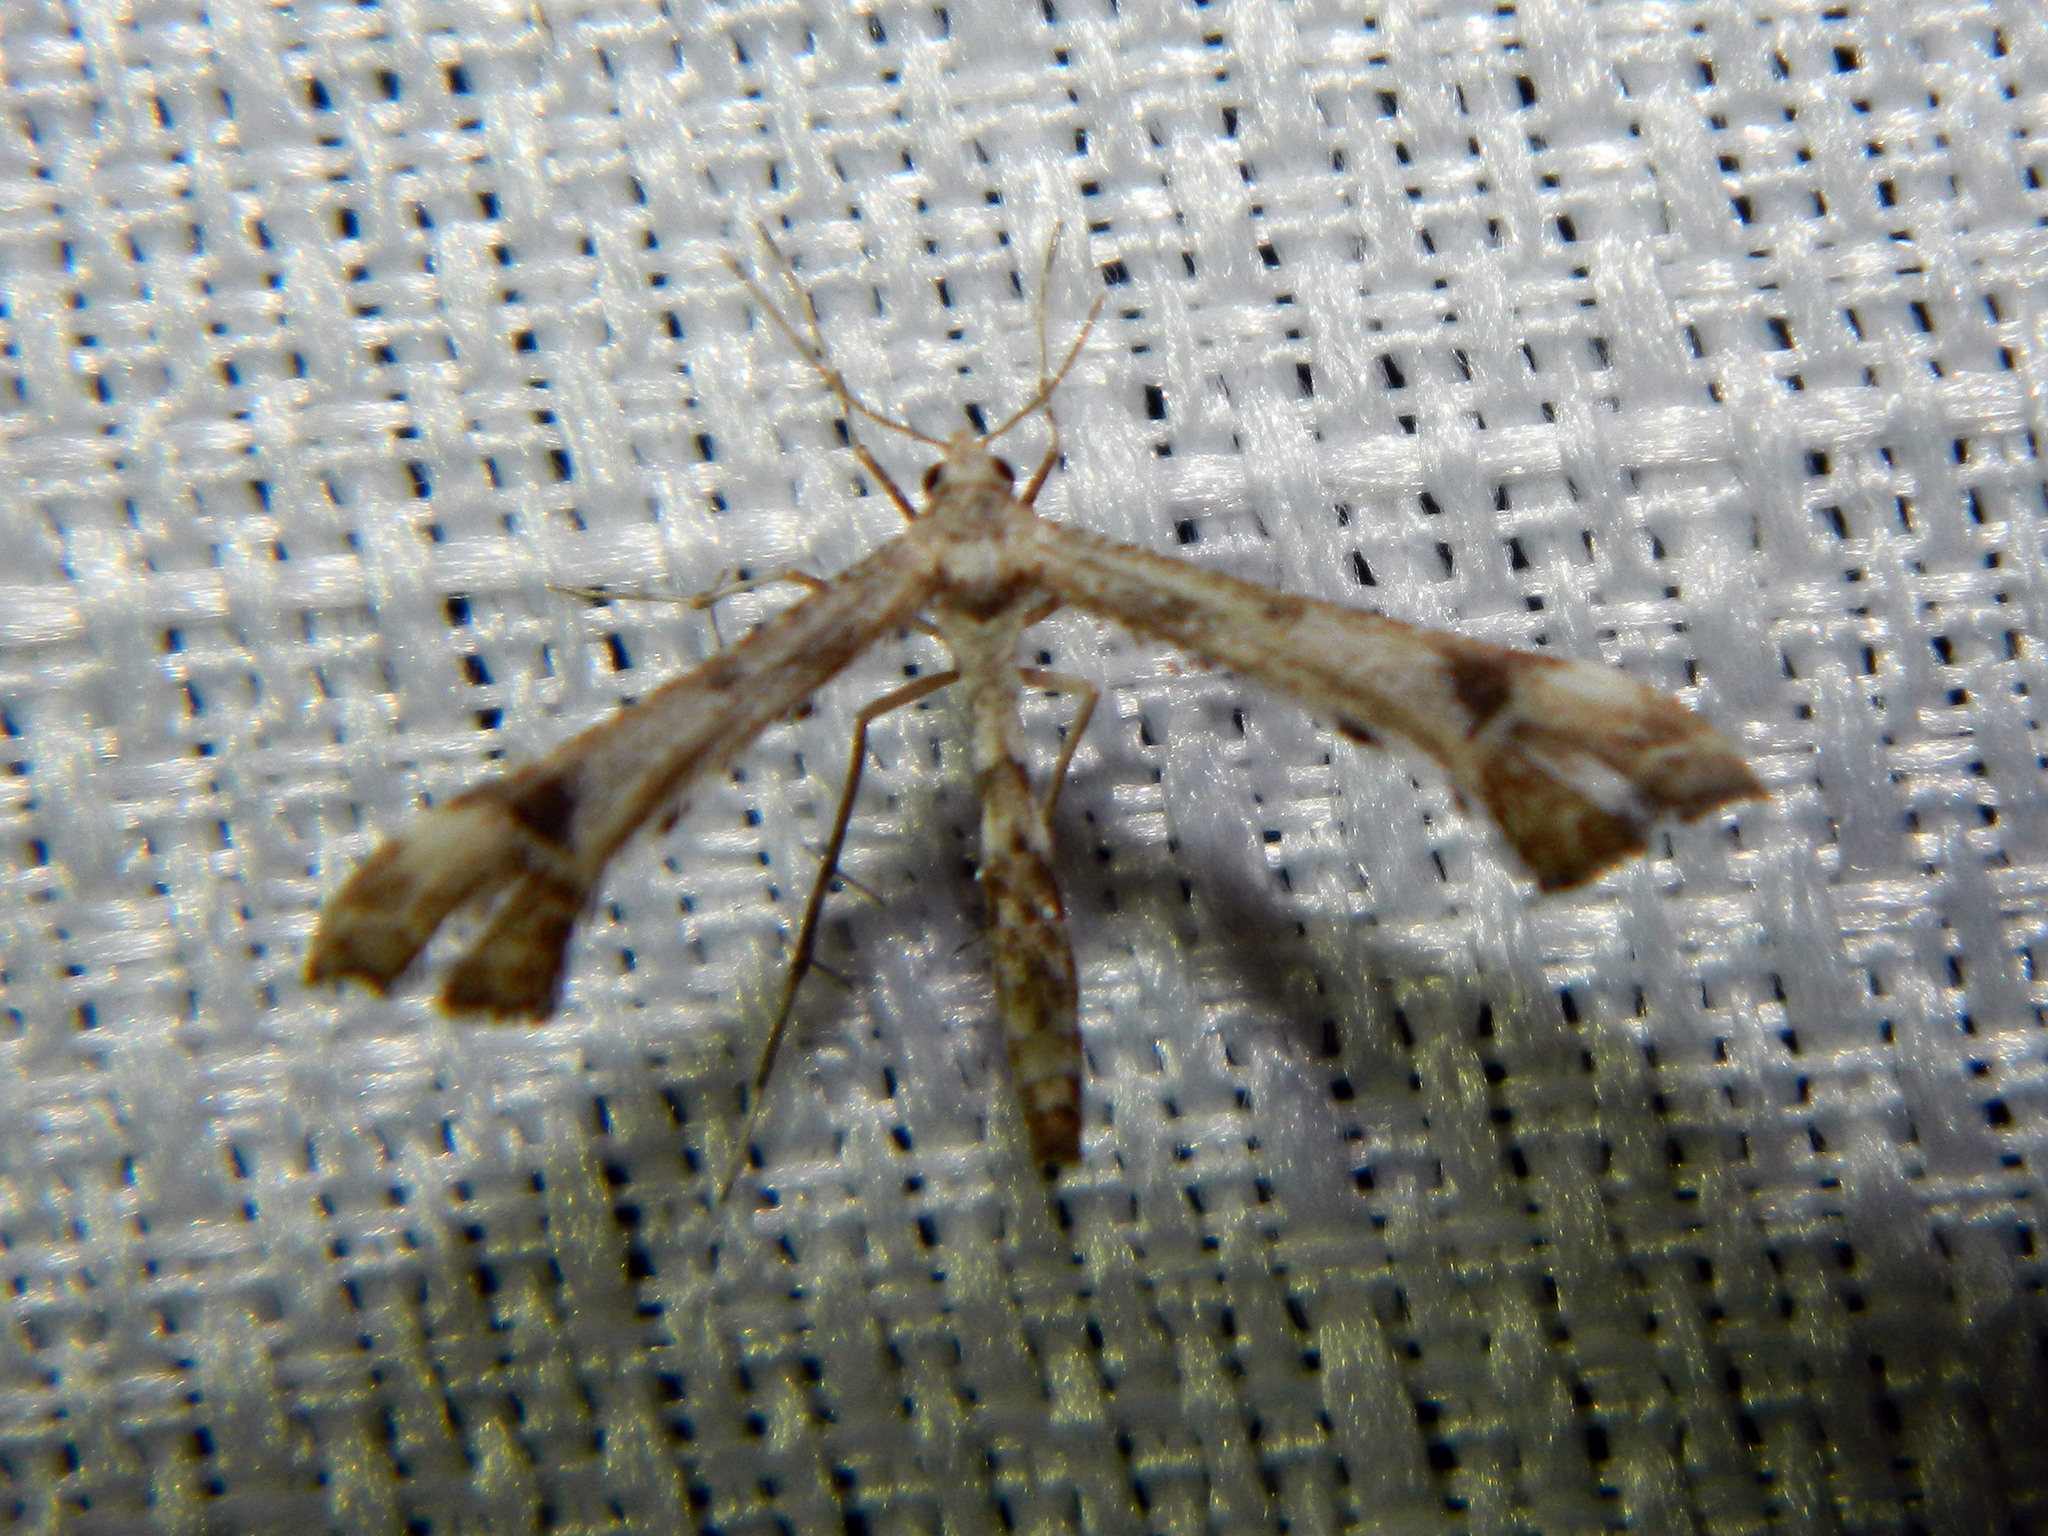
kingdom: Animalia
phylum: Arthropoda
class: Insecta
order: Lepidoptera
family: Pterophoridae
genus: Platyptilia
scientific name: Platyptilia carduidactylus
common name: Artichoke plume moth
